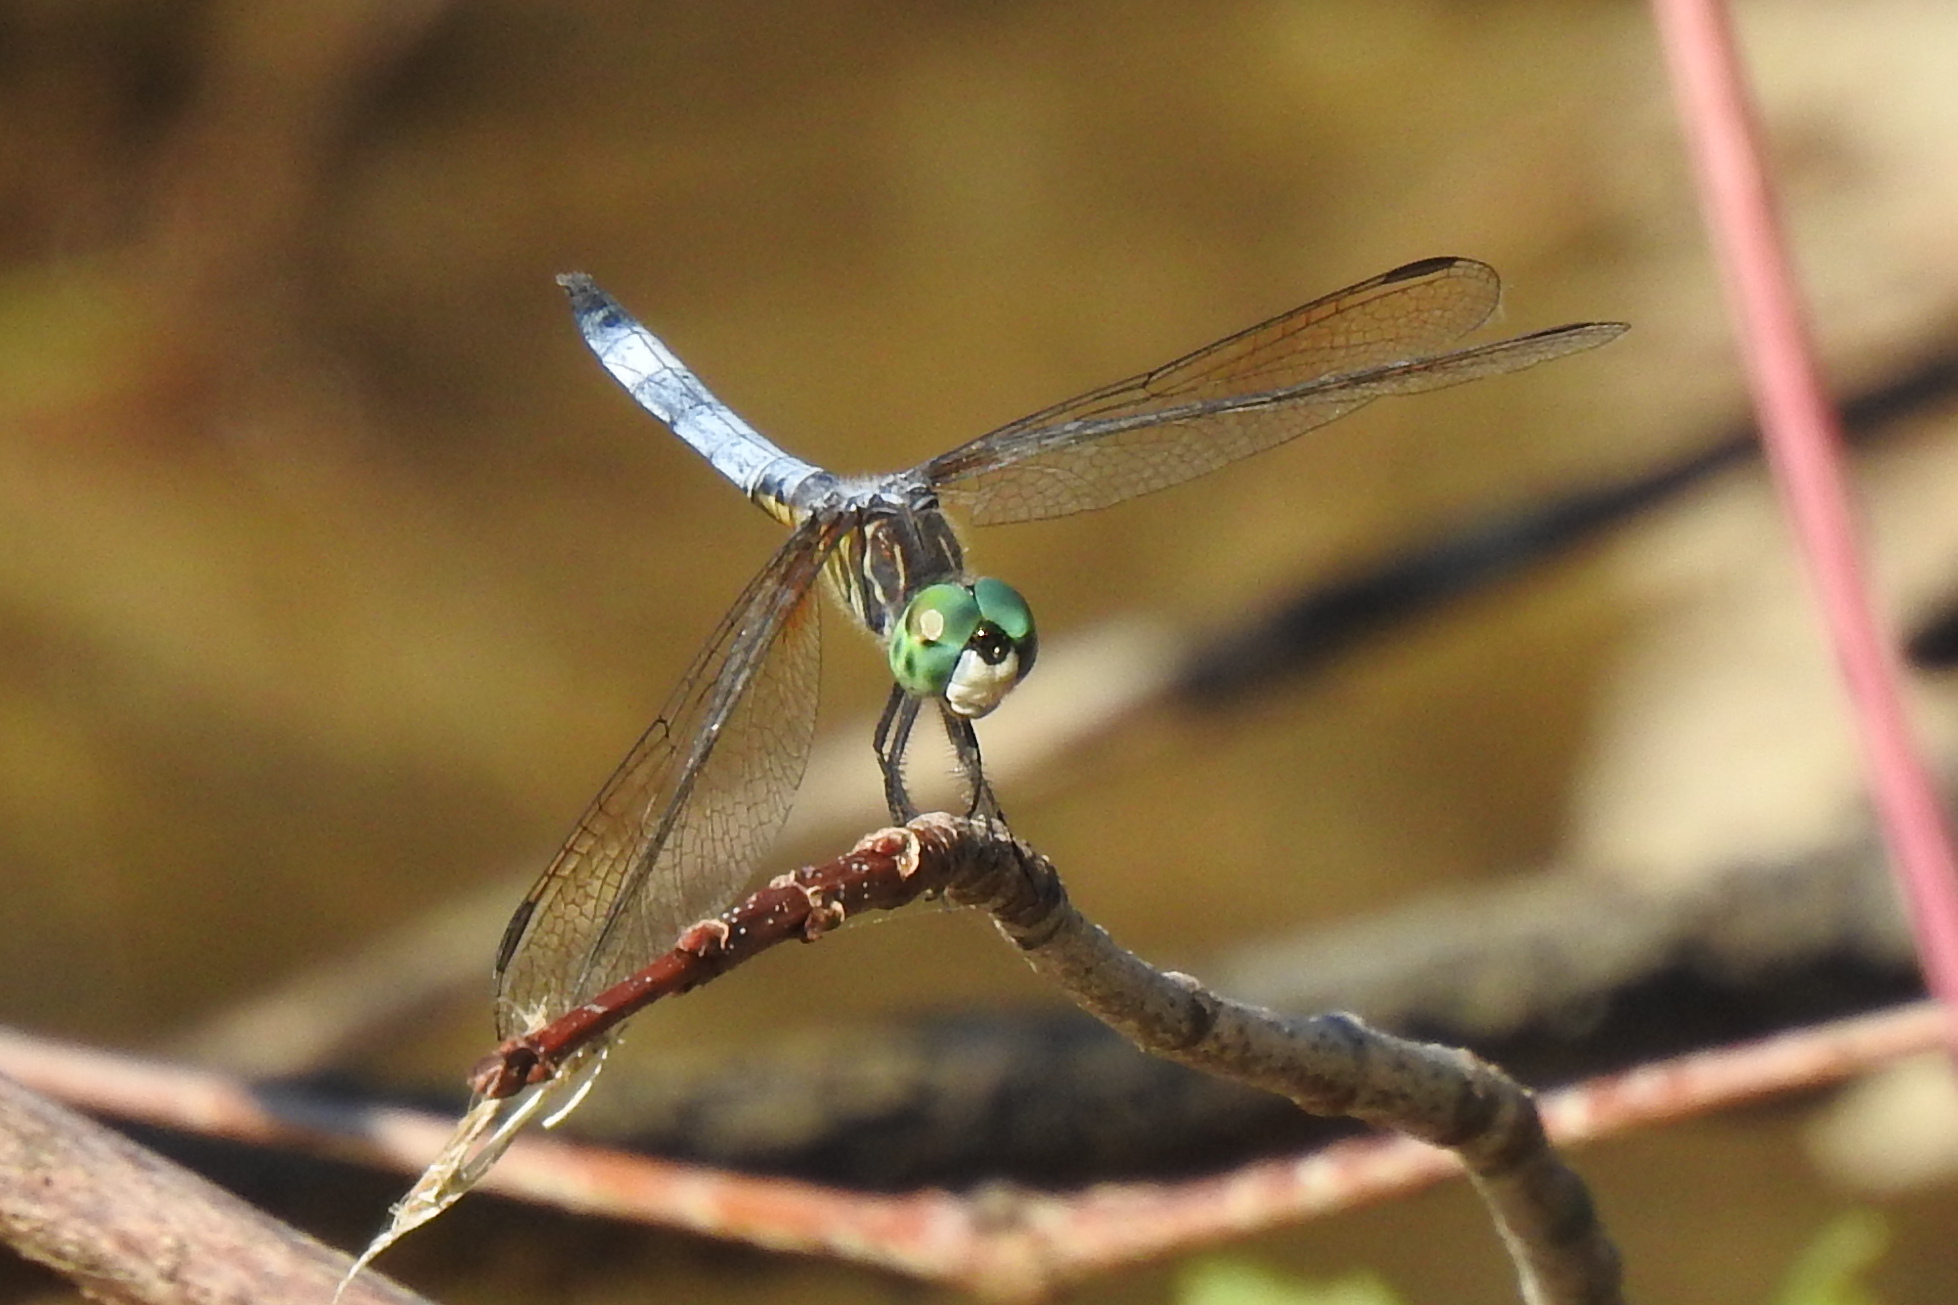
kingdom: Animalia
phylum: Arthropoda
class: Insecta
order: Odonata
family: Libellulidae
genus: Pachydiplax
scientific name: Pachydiplax longipennis
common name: Blue dasher
